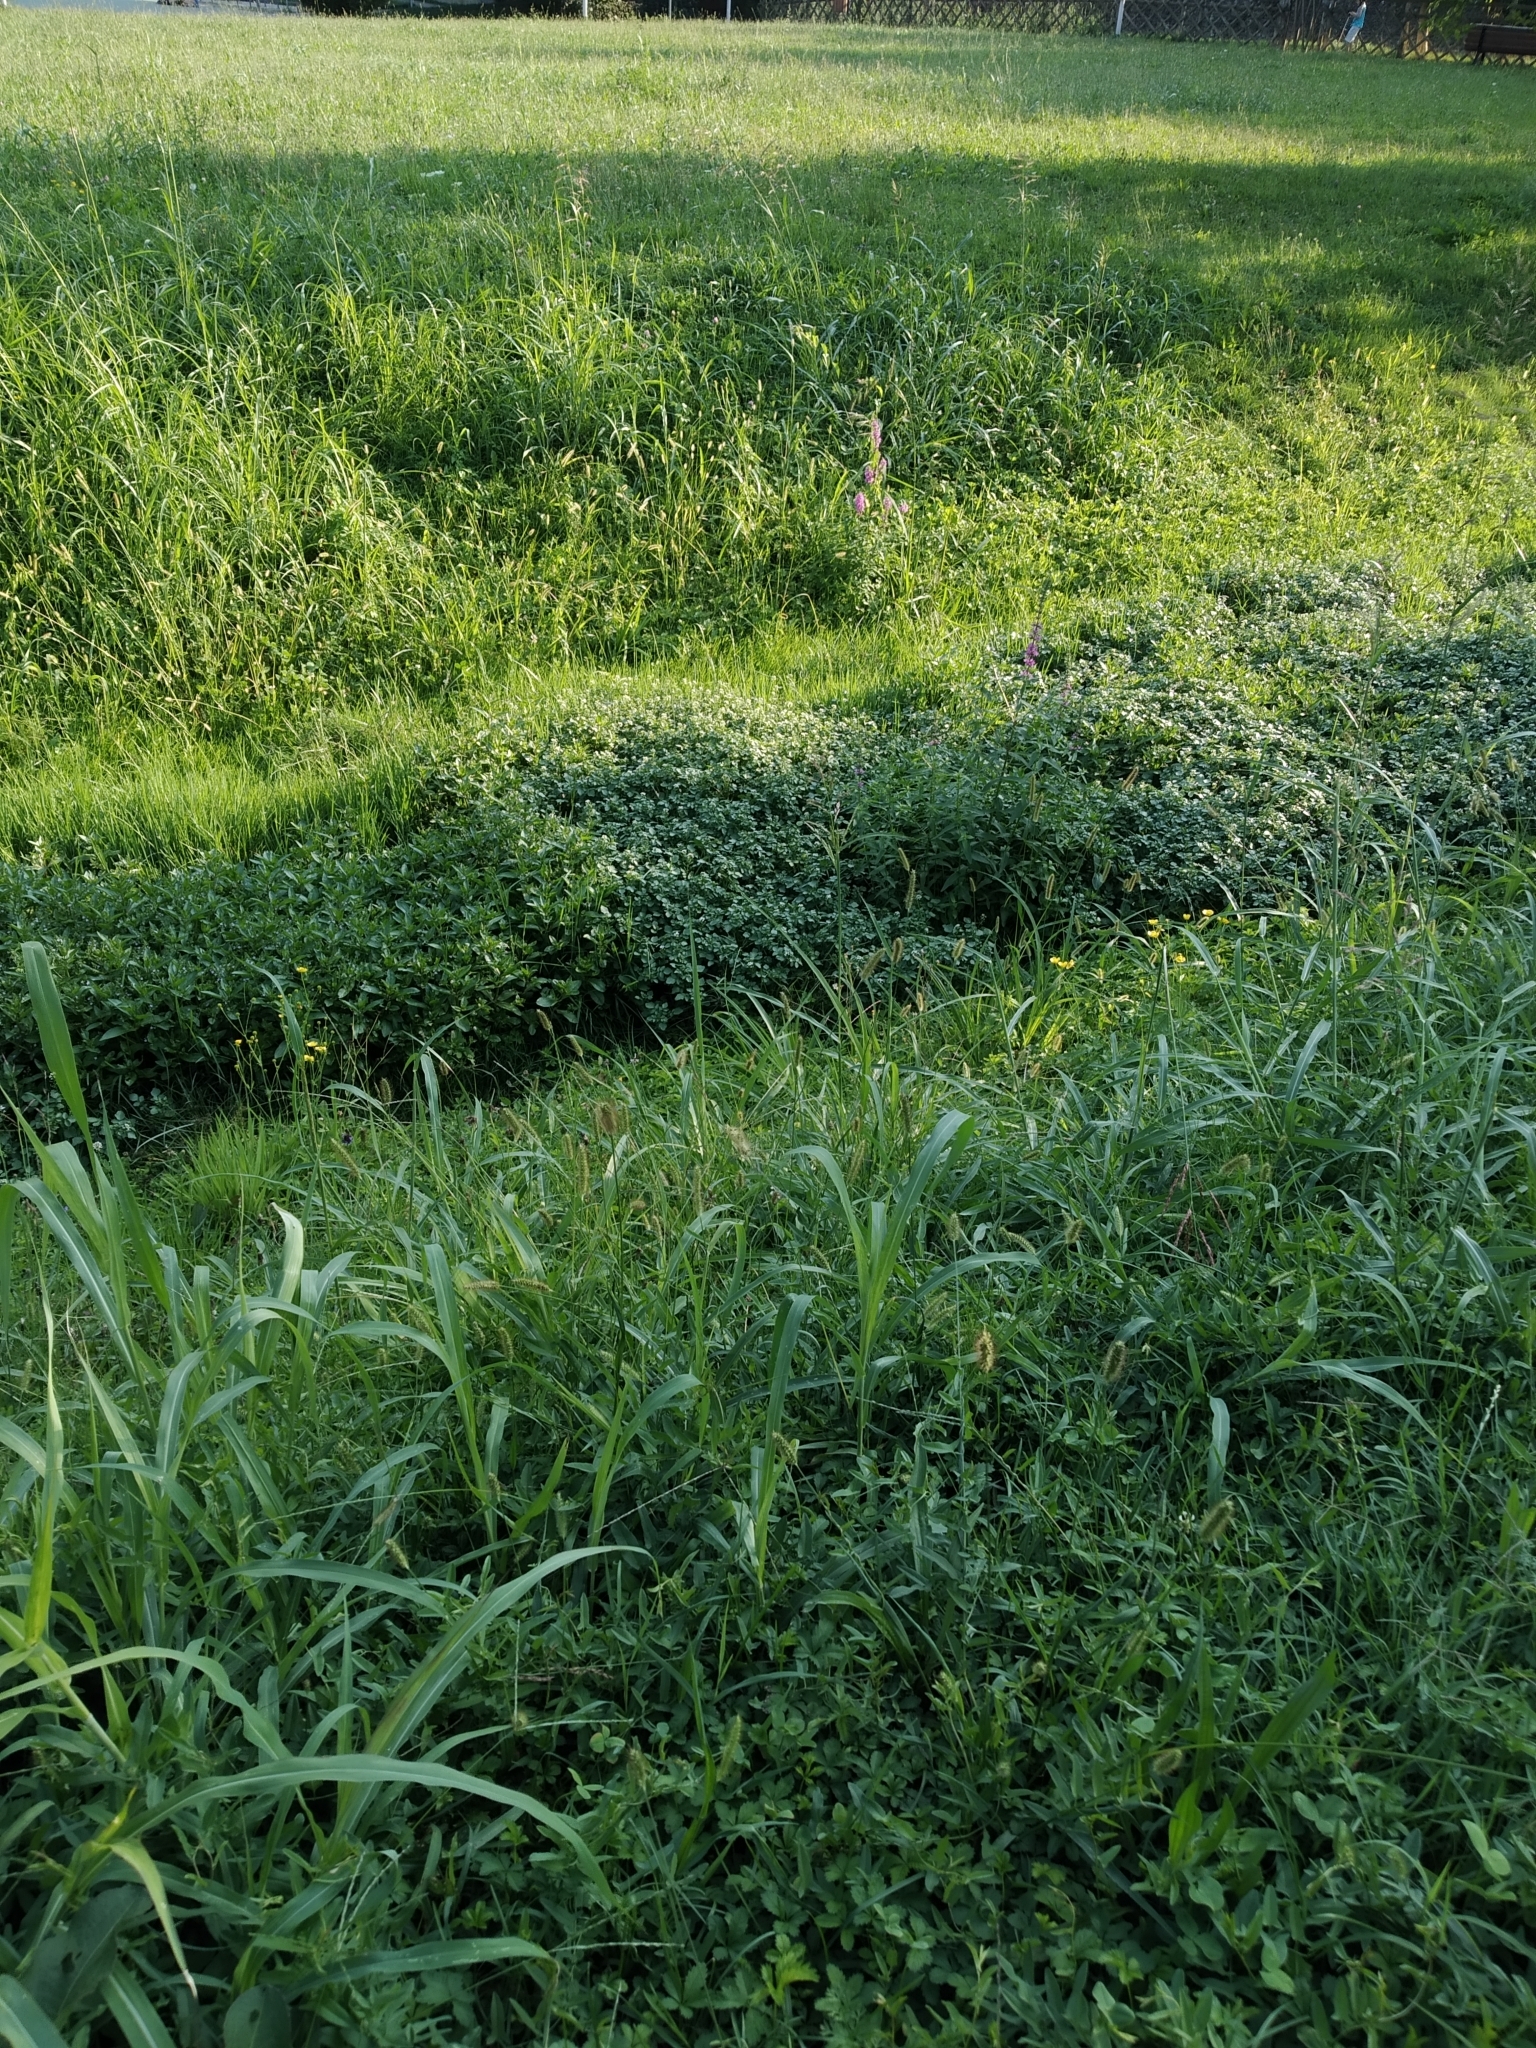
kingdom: Plantae
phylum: Tracheophyta
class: Magnoliopsida
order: Myrtales
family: Lythraceae
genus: Lythrum
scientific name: Lythrum salicaria
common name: Purple loosestrife
